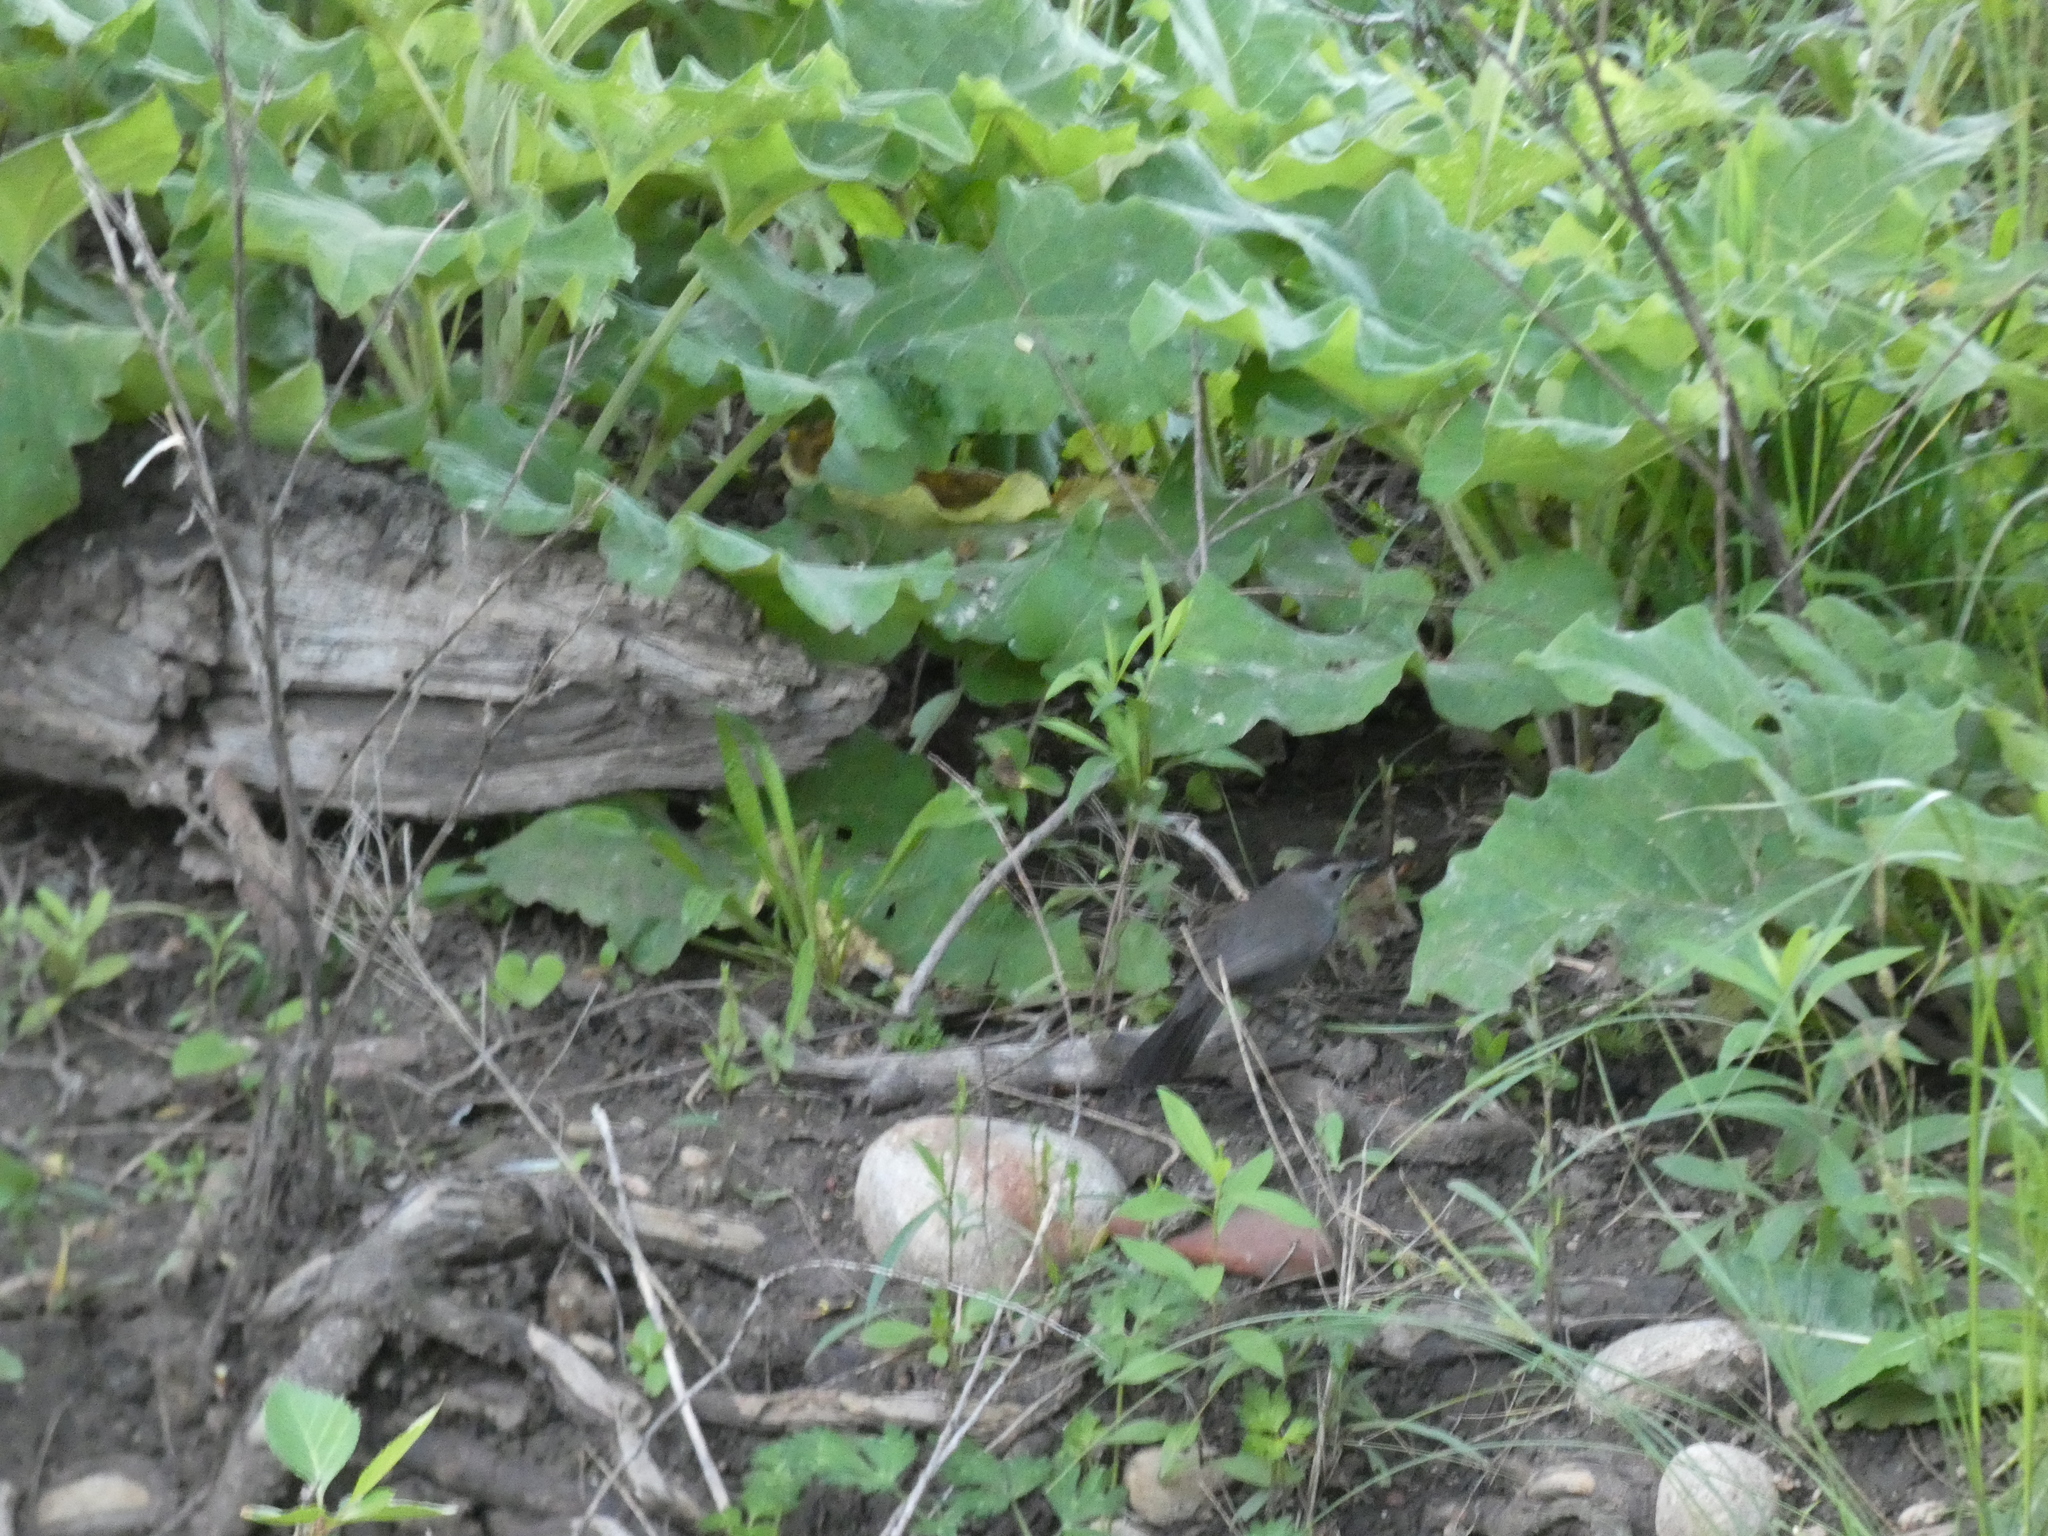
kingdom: Animalia
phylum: Chordata
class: Aves
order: Passeriformes
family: Mimidae
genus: Dumetella
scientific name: Dumetella carolinensis
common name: Gray catbird
